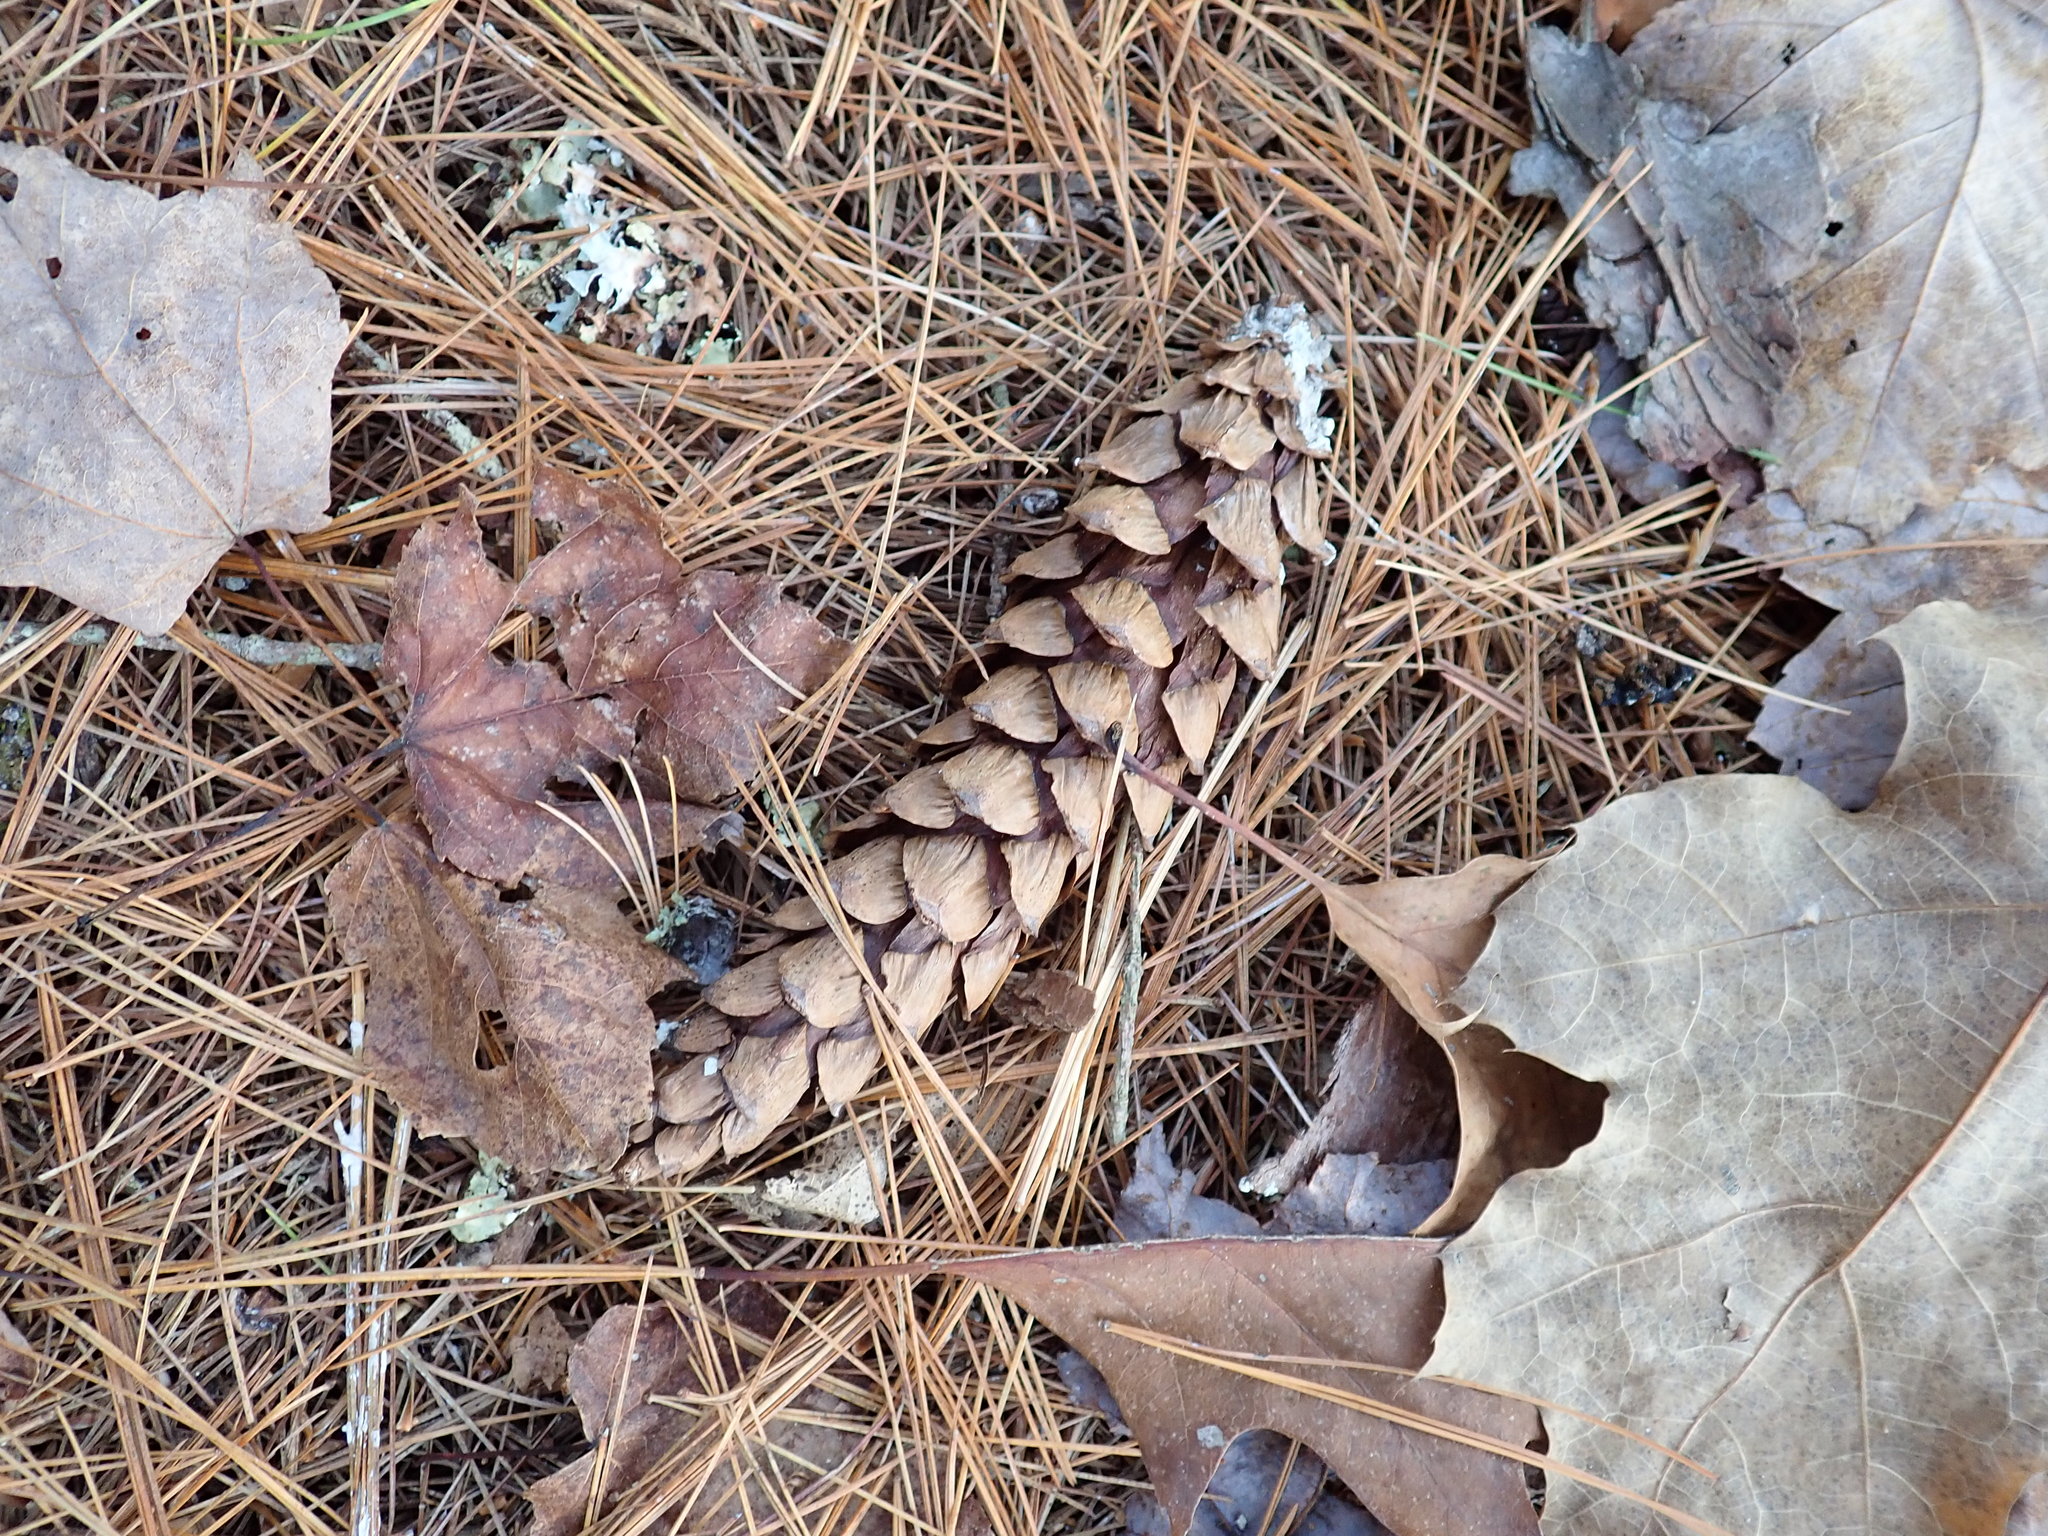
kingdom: Plantae
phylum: Tracheophyta
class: Pinopsida
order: Pinales
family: Pinaceae
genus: Pinus
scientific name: Pinus strobus
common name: Weymouth pine
